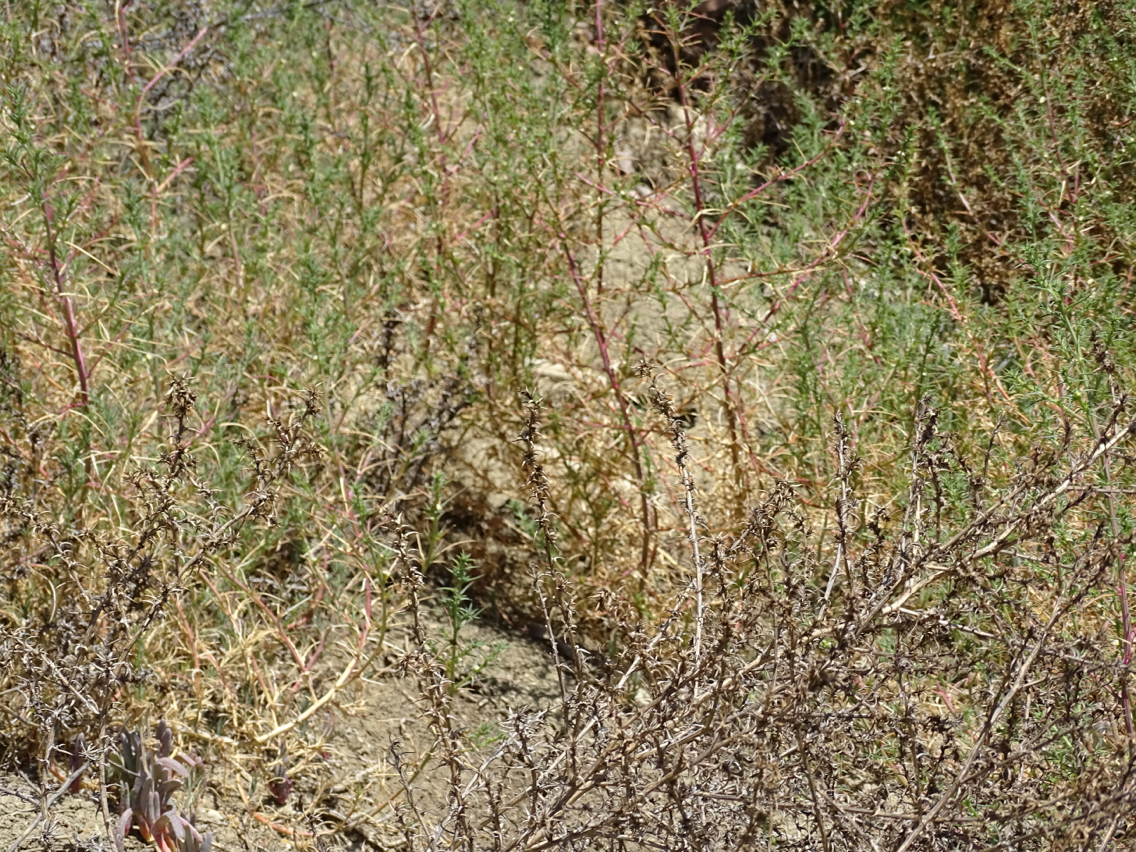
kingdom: Plantae
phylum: Tracheophyta
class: Magnoliopsida
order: Caryophyllales
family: Amaranthaceae
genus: Salsola
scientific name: Salsola
